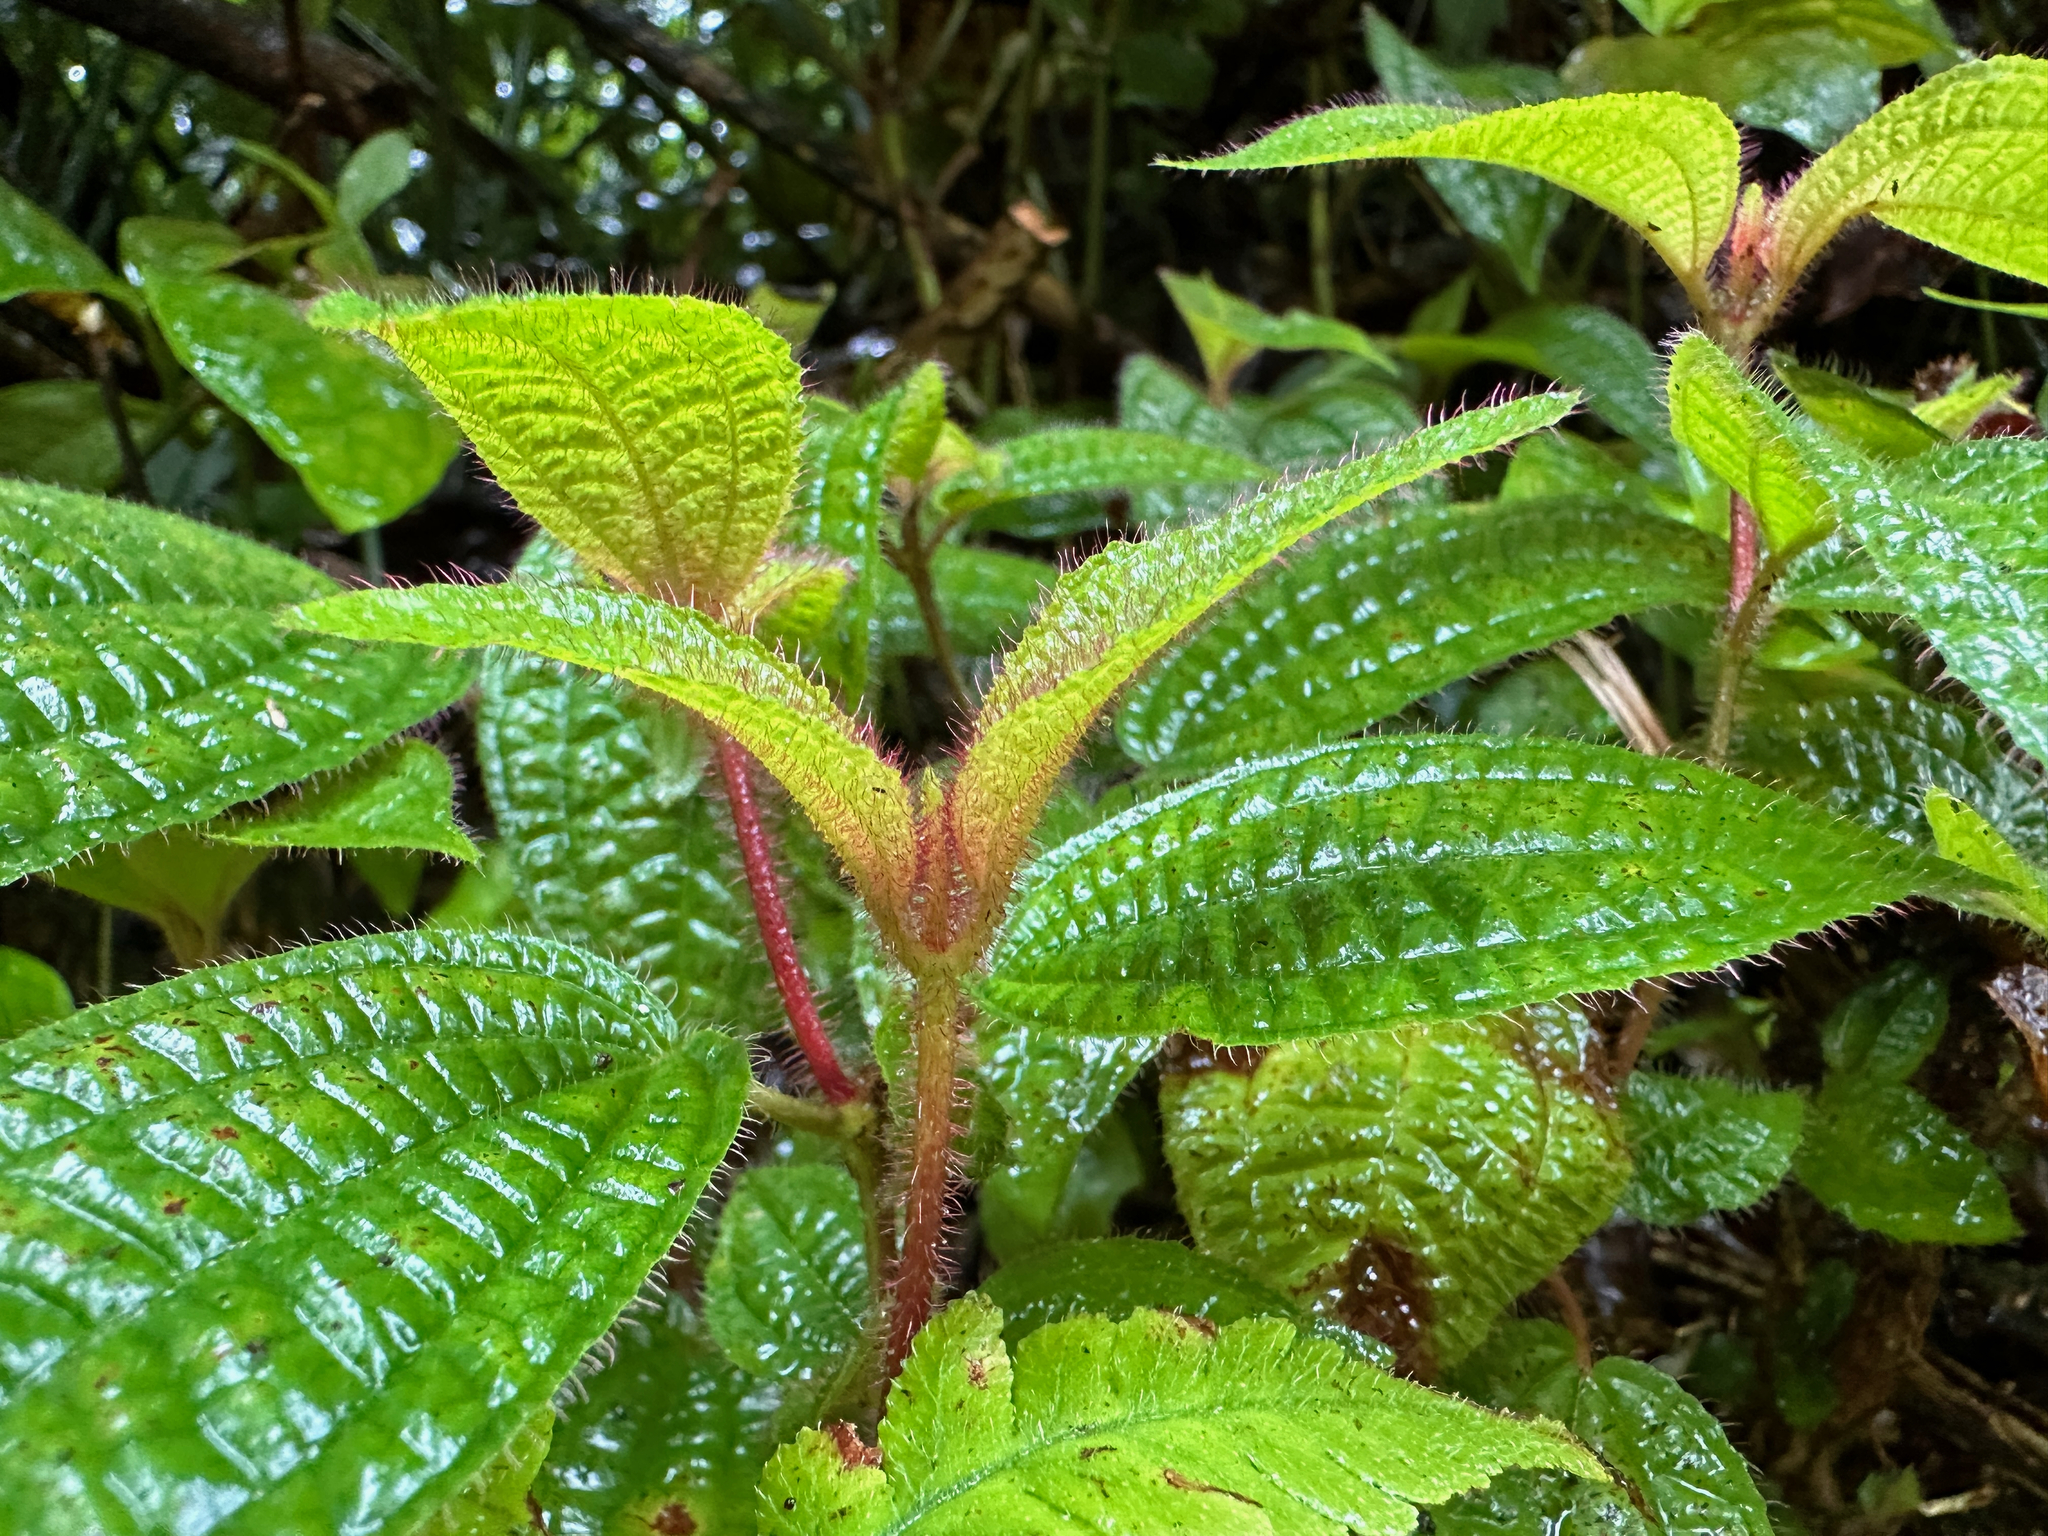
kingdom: Plantae
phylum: Tracheophyta
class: Magnoliopsida
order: Myrtales
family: Melastomataceae
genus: Miconia
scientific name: Miconia crenata
